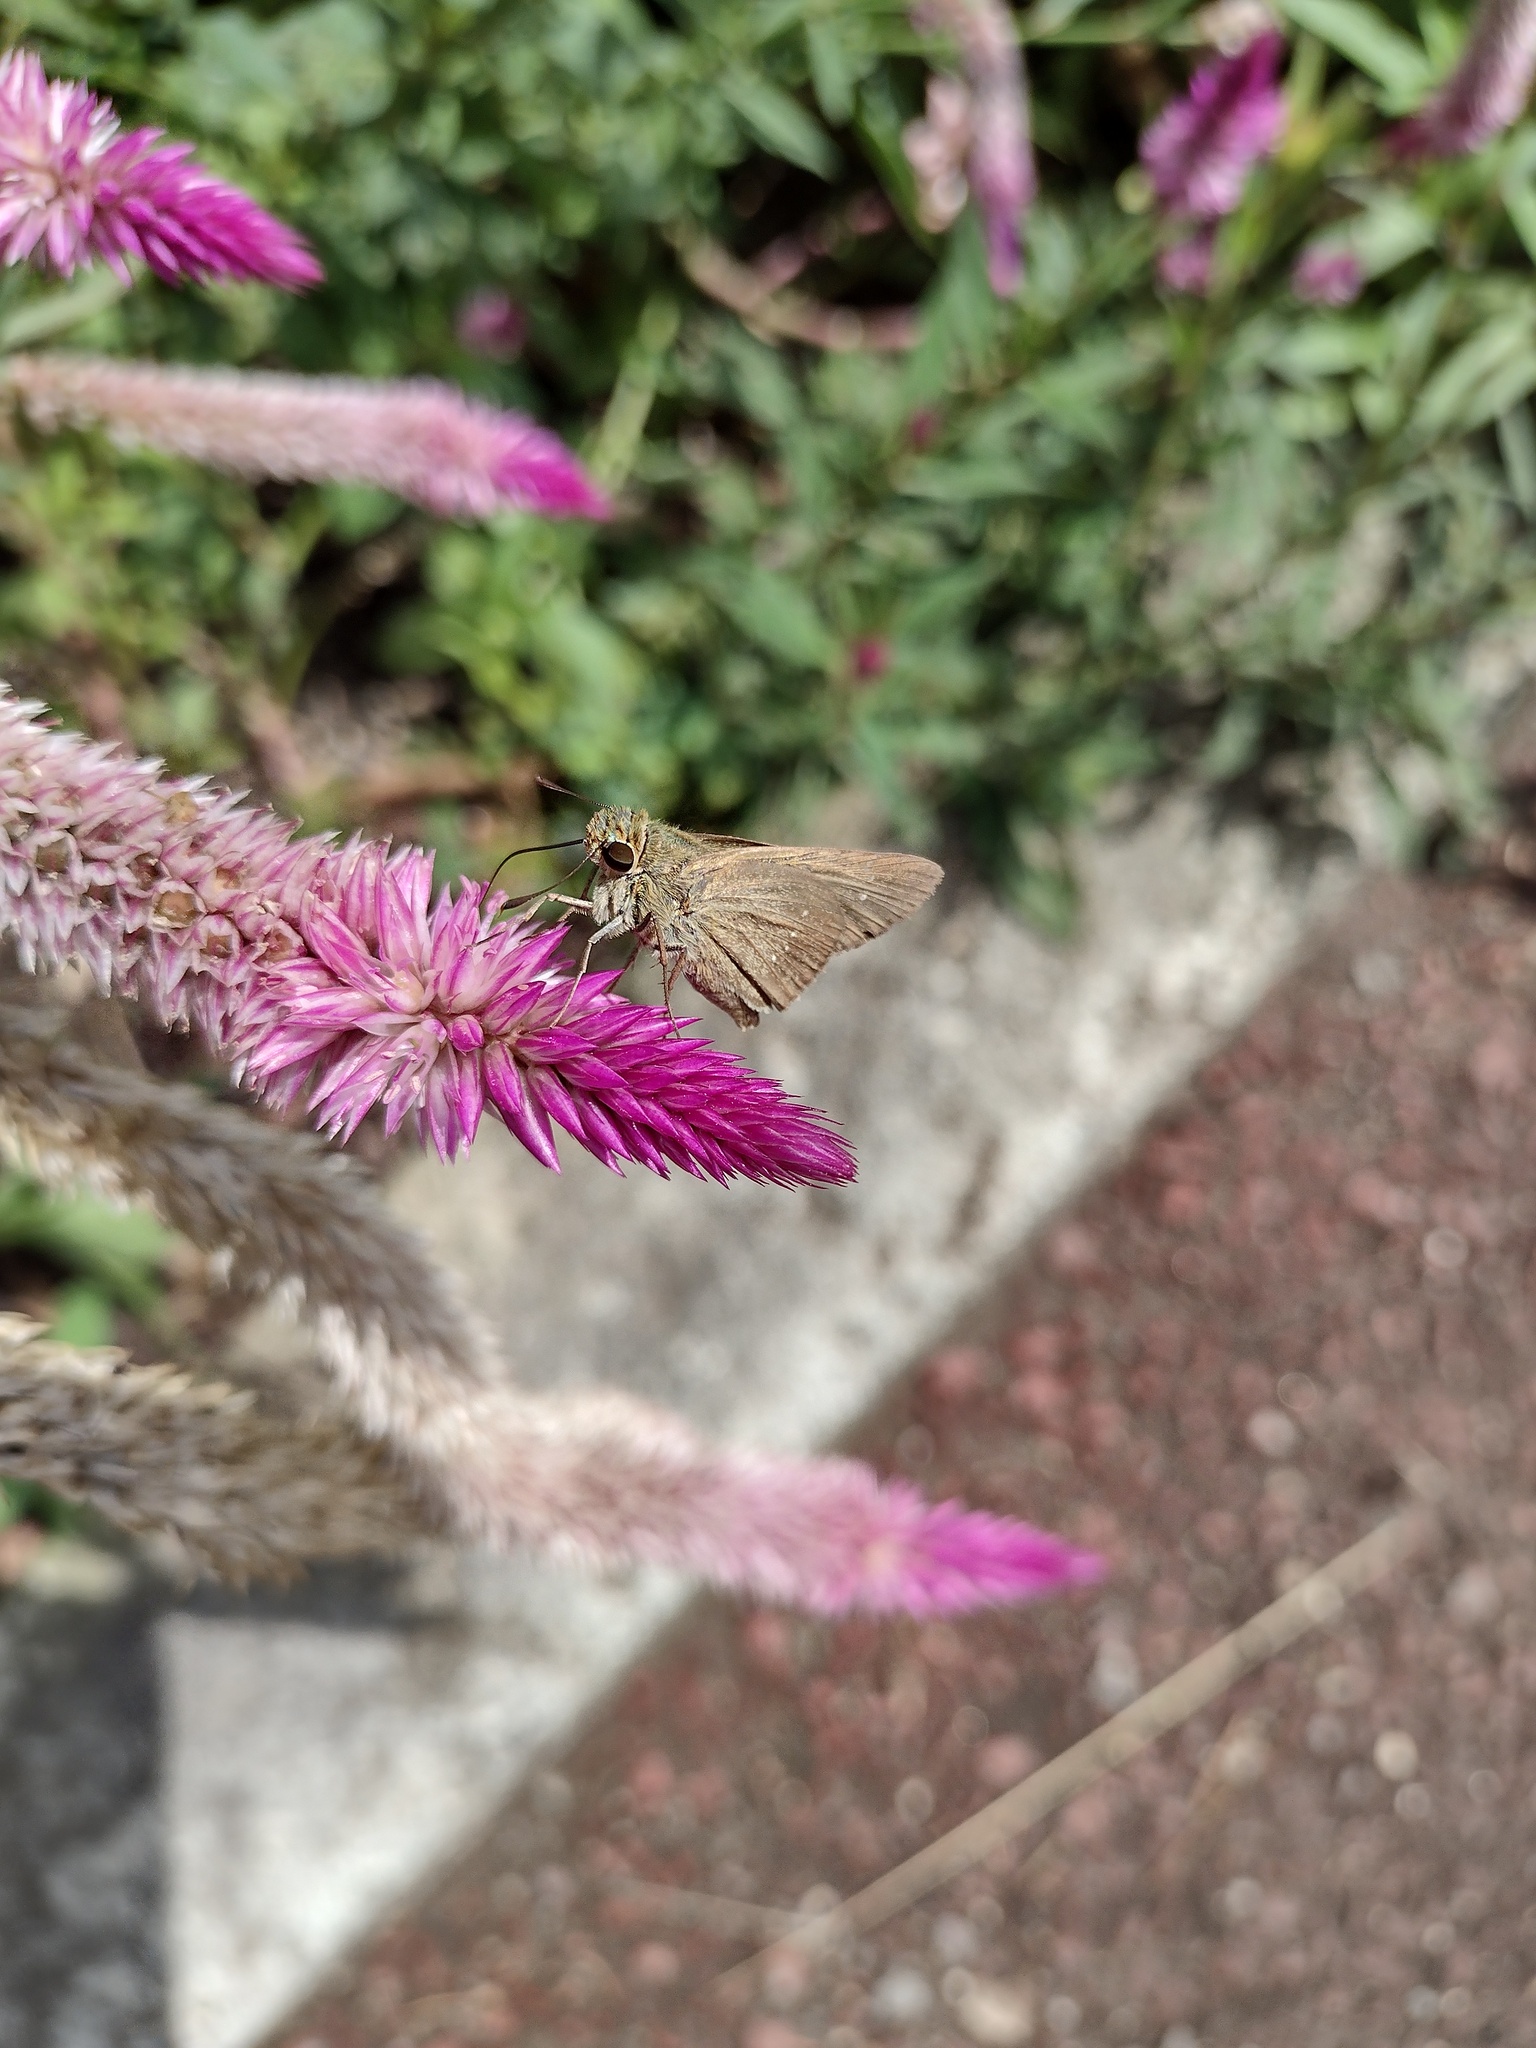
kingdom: Animalia
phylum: Arthropoda
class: Insecta
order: Lepidoptera
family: Hesperiidae
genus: Pelopidas
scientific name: Pelopidas mathias
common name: Black-branded swift
